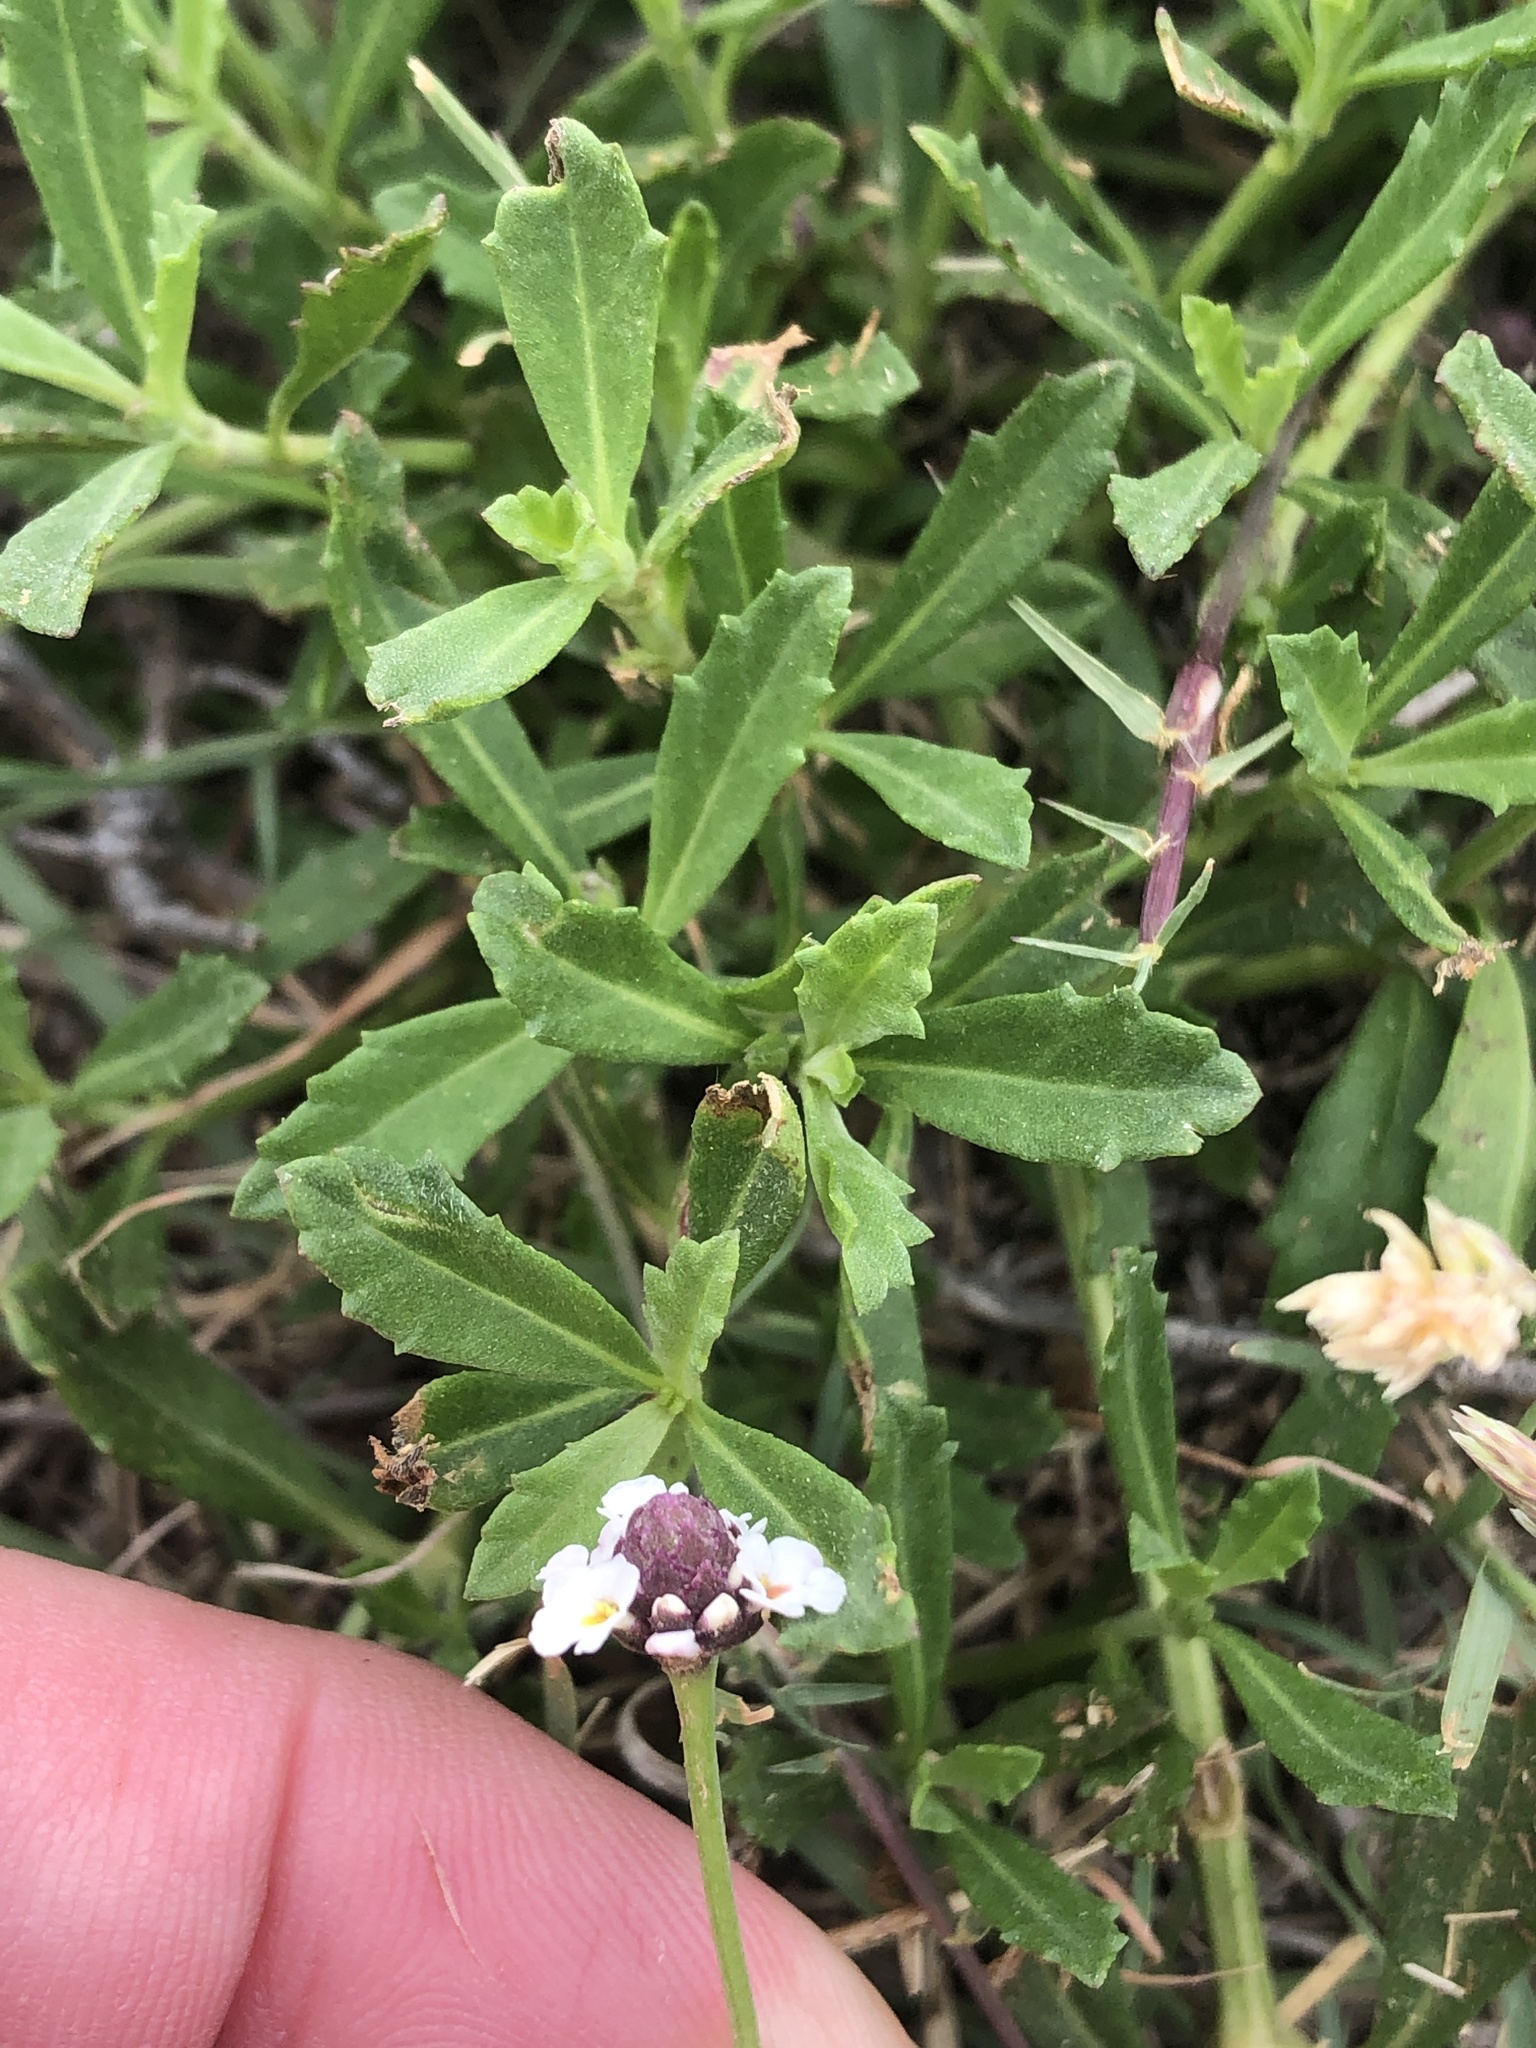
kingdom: Plantae
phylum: Tracheophyta
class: Magnoliopsida
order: Lamiales
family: Verbenaceae
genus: Phyla
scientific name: Phyla nodiflora
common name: Frogfruit
